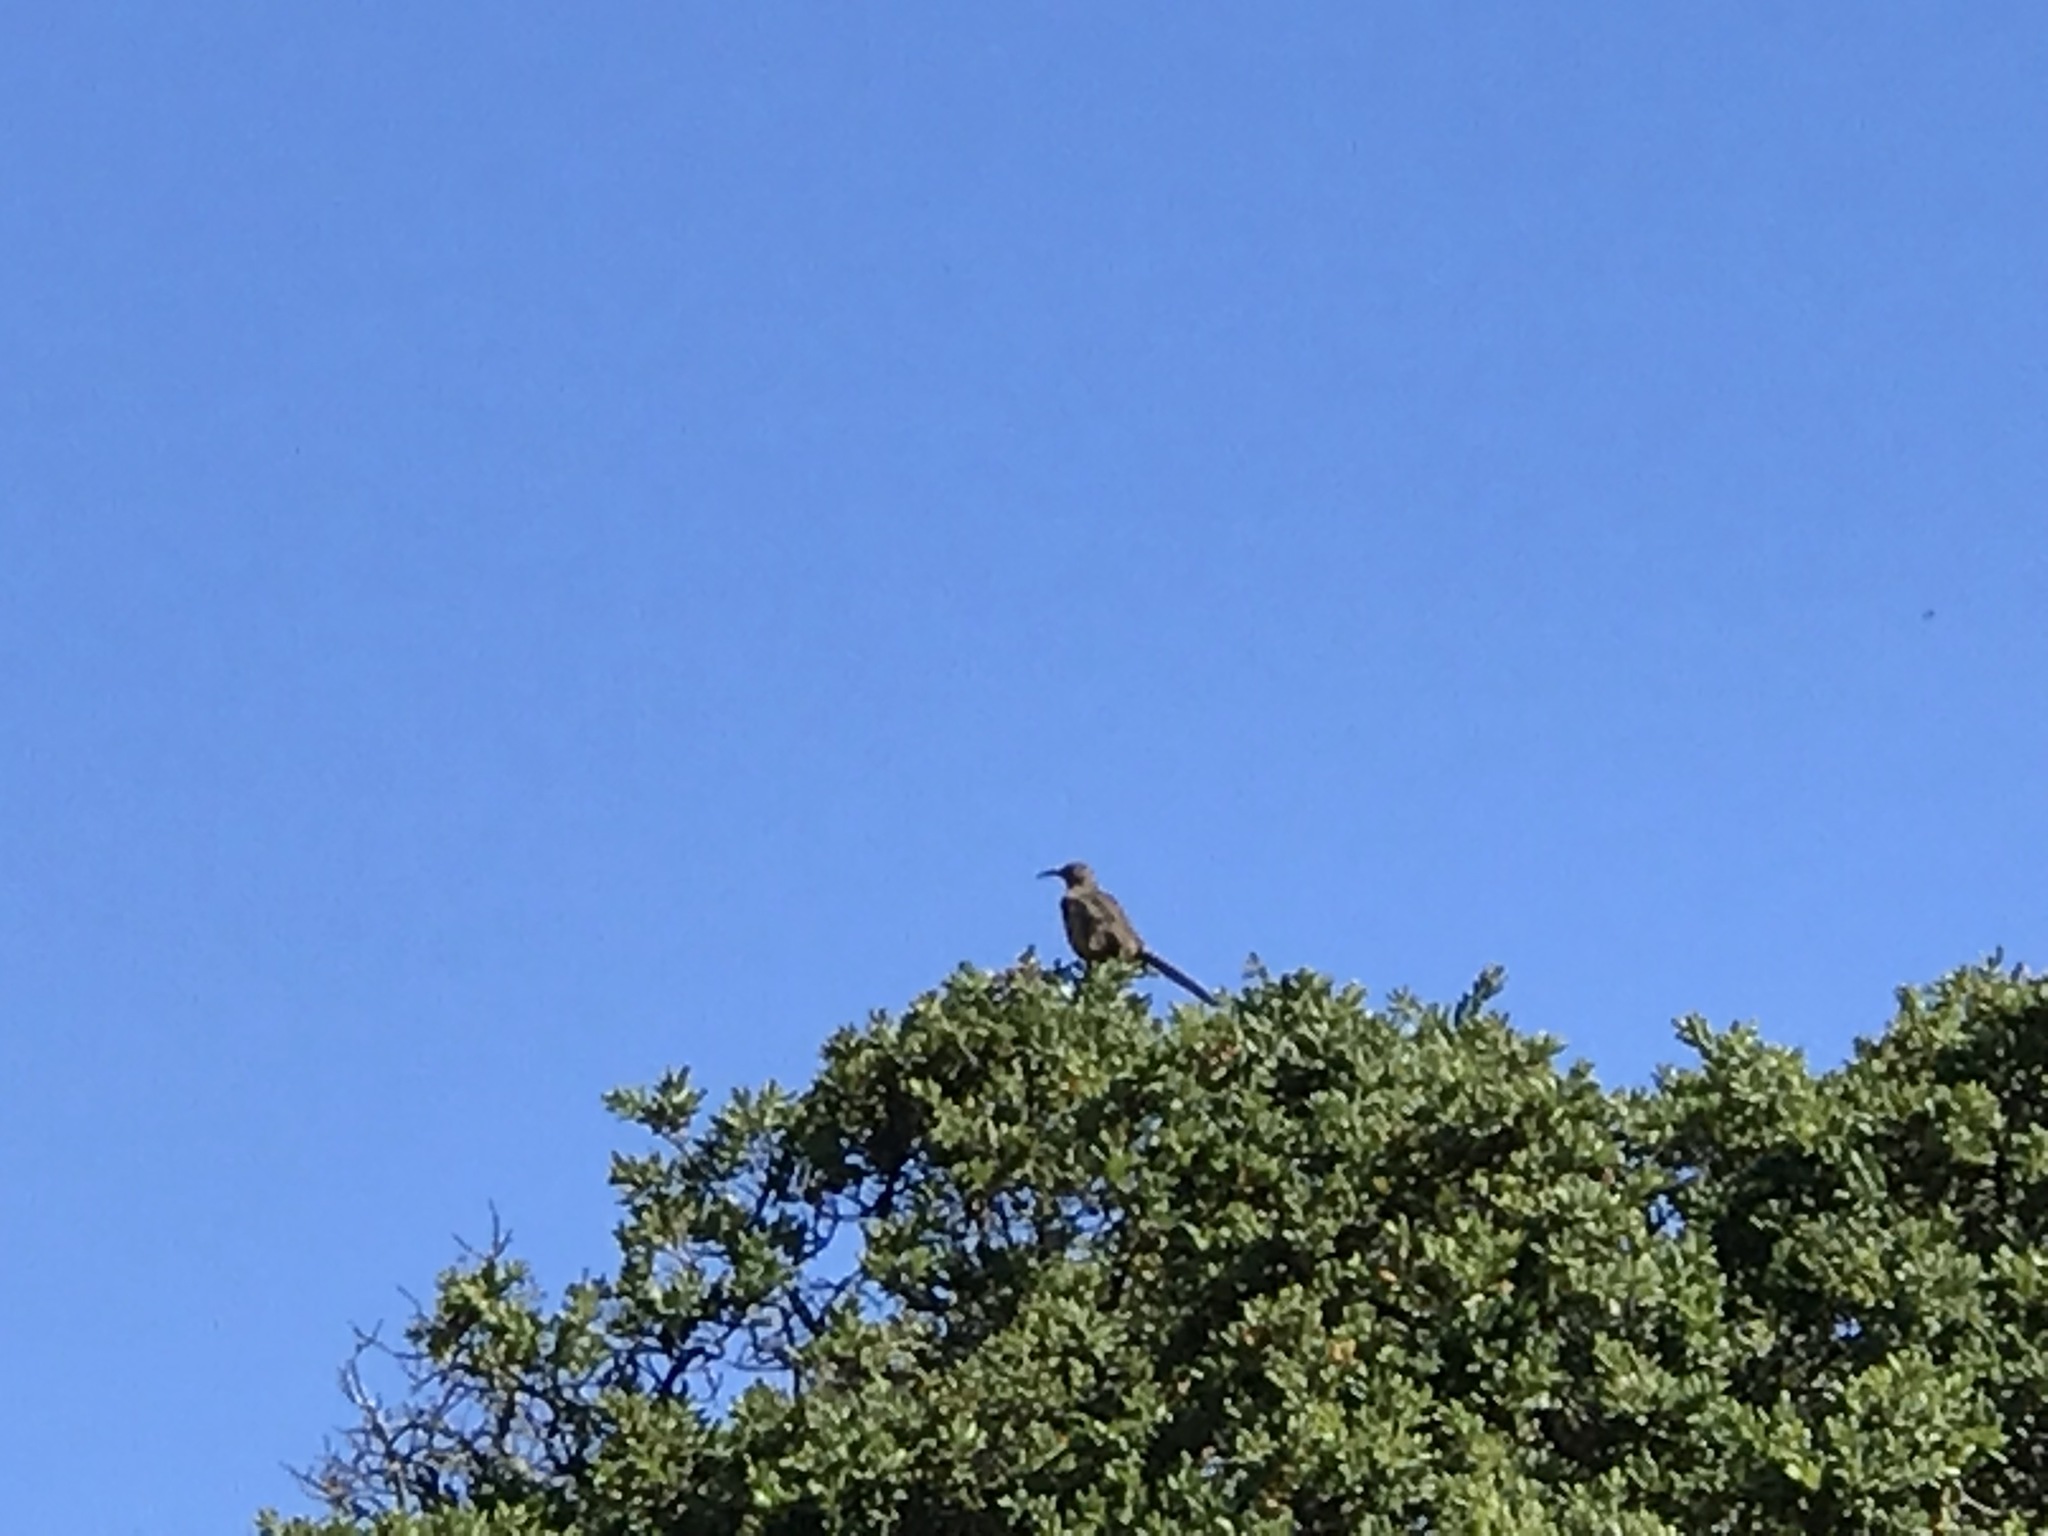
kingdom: Animalia
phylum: Chordata
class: Aves
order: Passeriformes
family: Mimidae
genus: Toxostoma
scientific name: Toxostoma redivivum
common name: California thrasher
